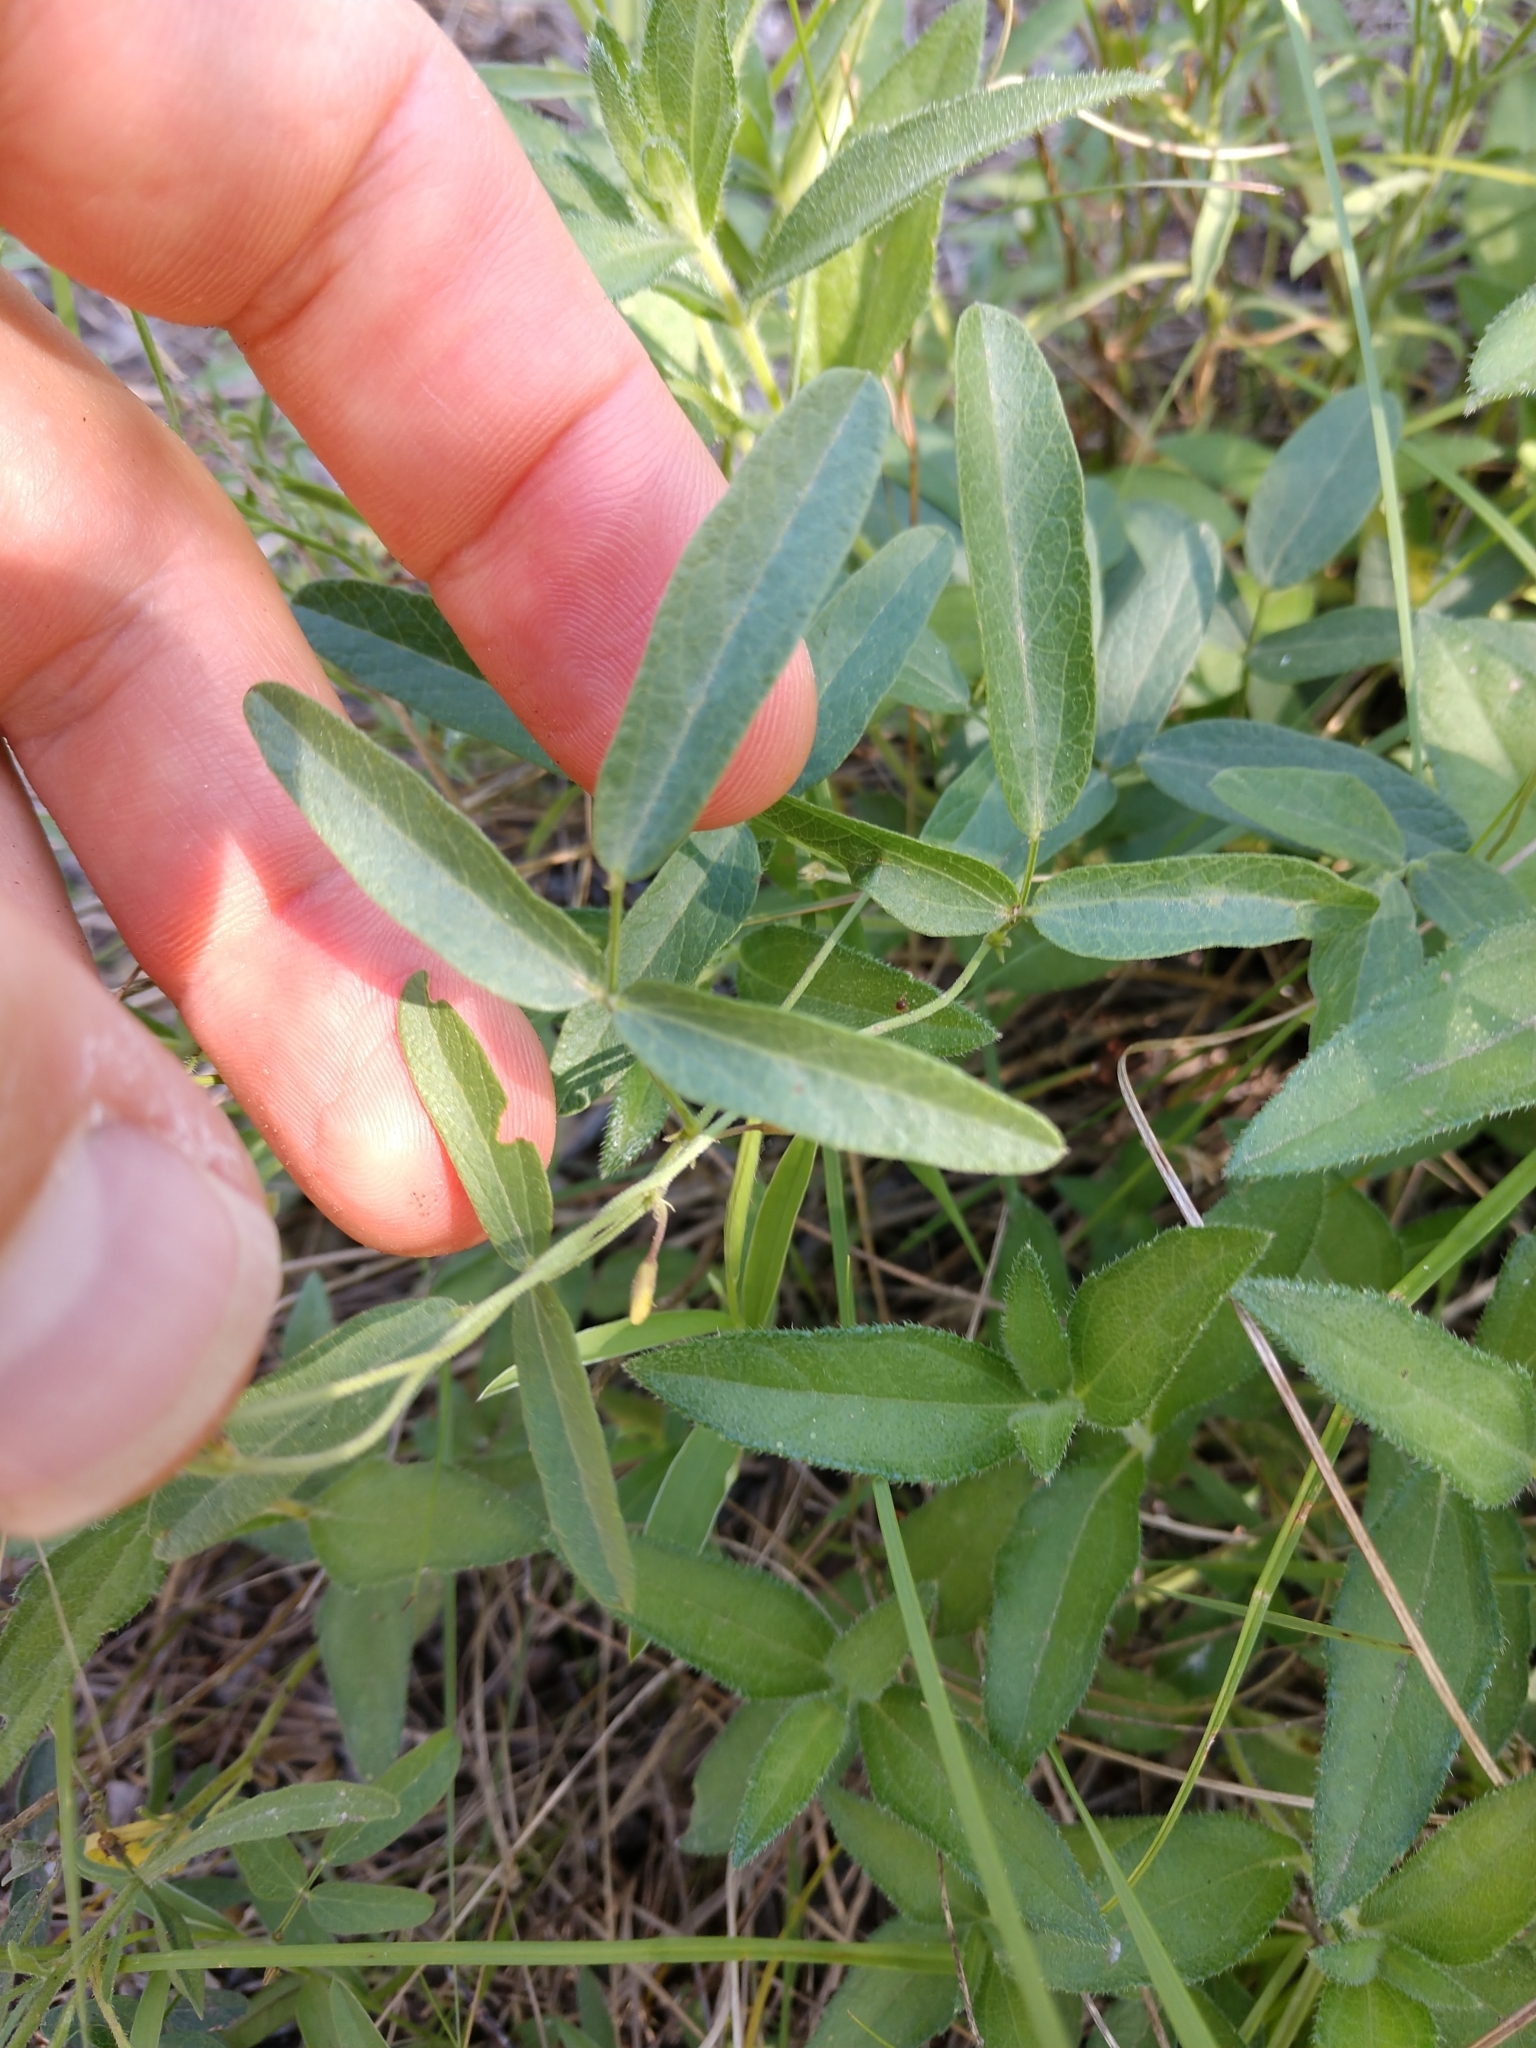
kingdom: Plantae
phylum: Tracheophyta
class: Magnoliopsida
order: Fabales
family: Fabaceae
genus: Rhynchosia
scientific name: Rhynchosia senna
